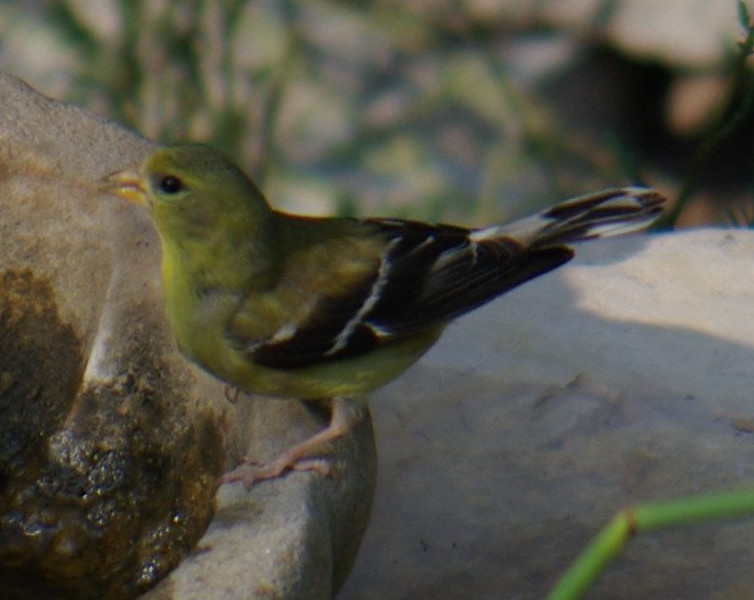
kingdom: Animalia
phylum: Chordata
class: Aves
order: Passeriformes
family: Fringillidae
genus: Spinus
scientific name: Spinus tristis
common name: American goldfinch
